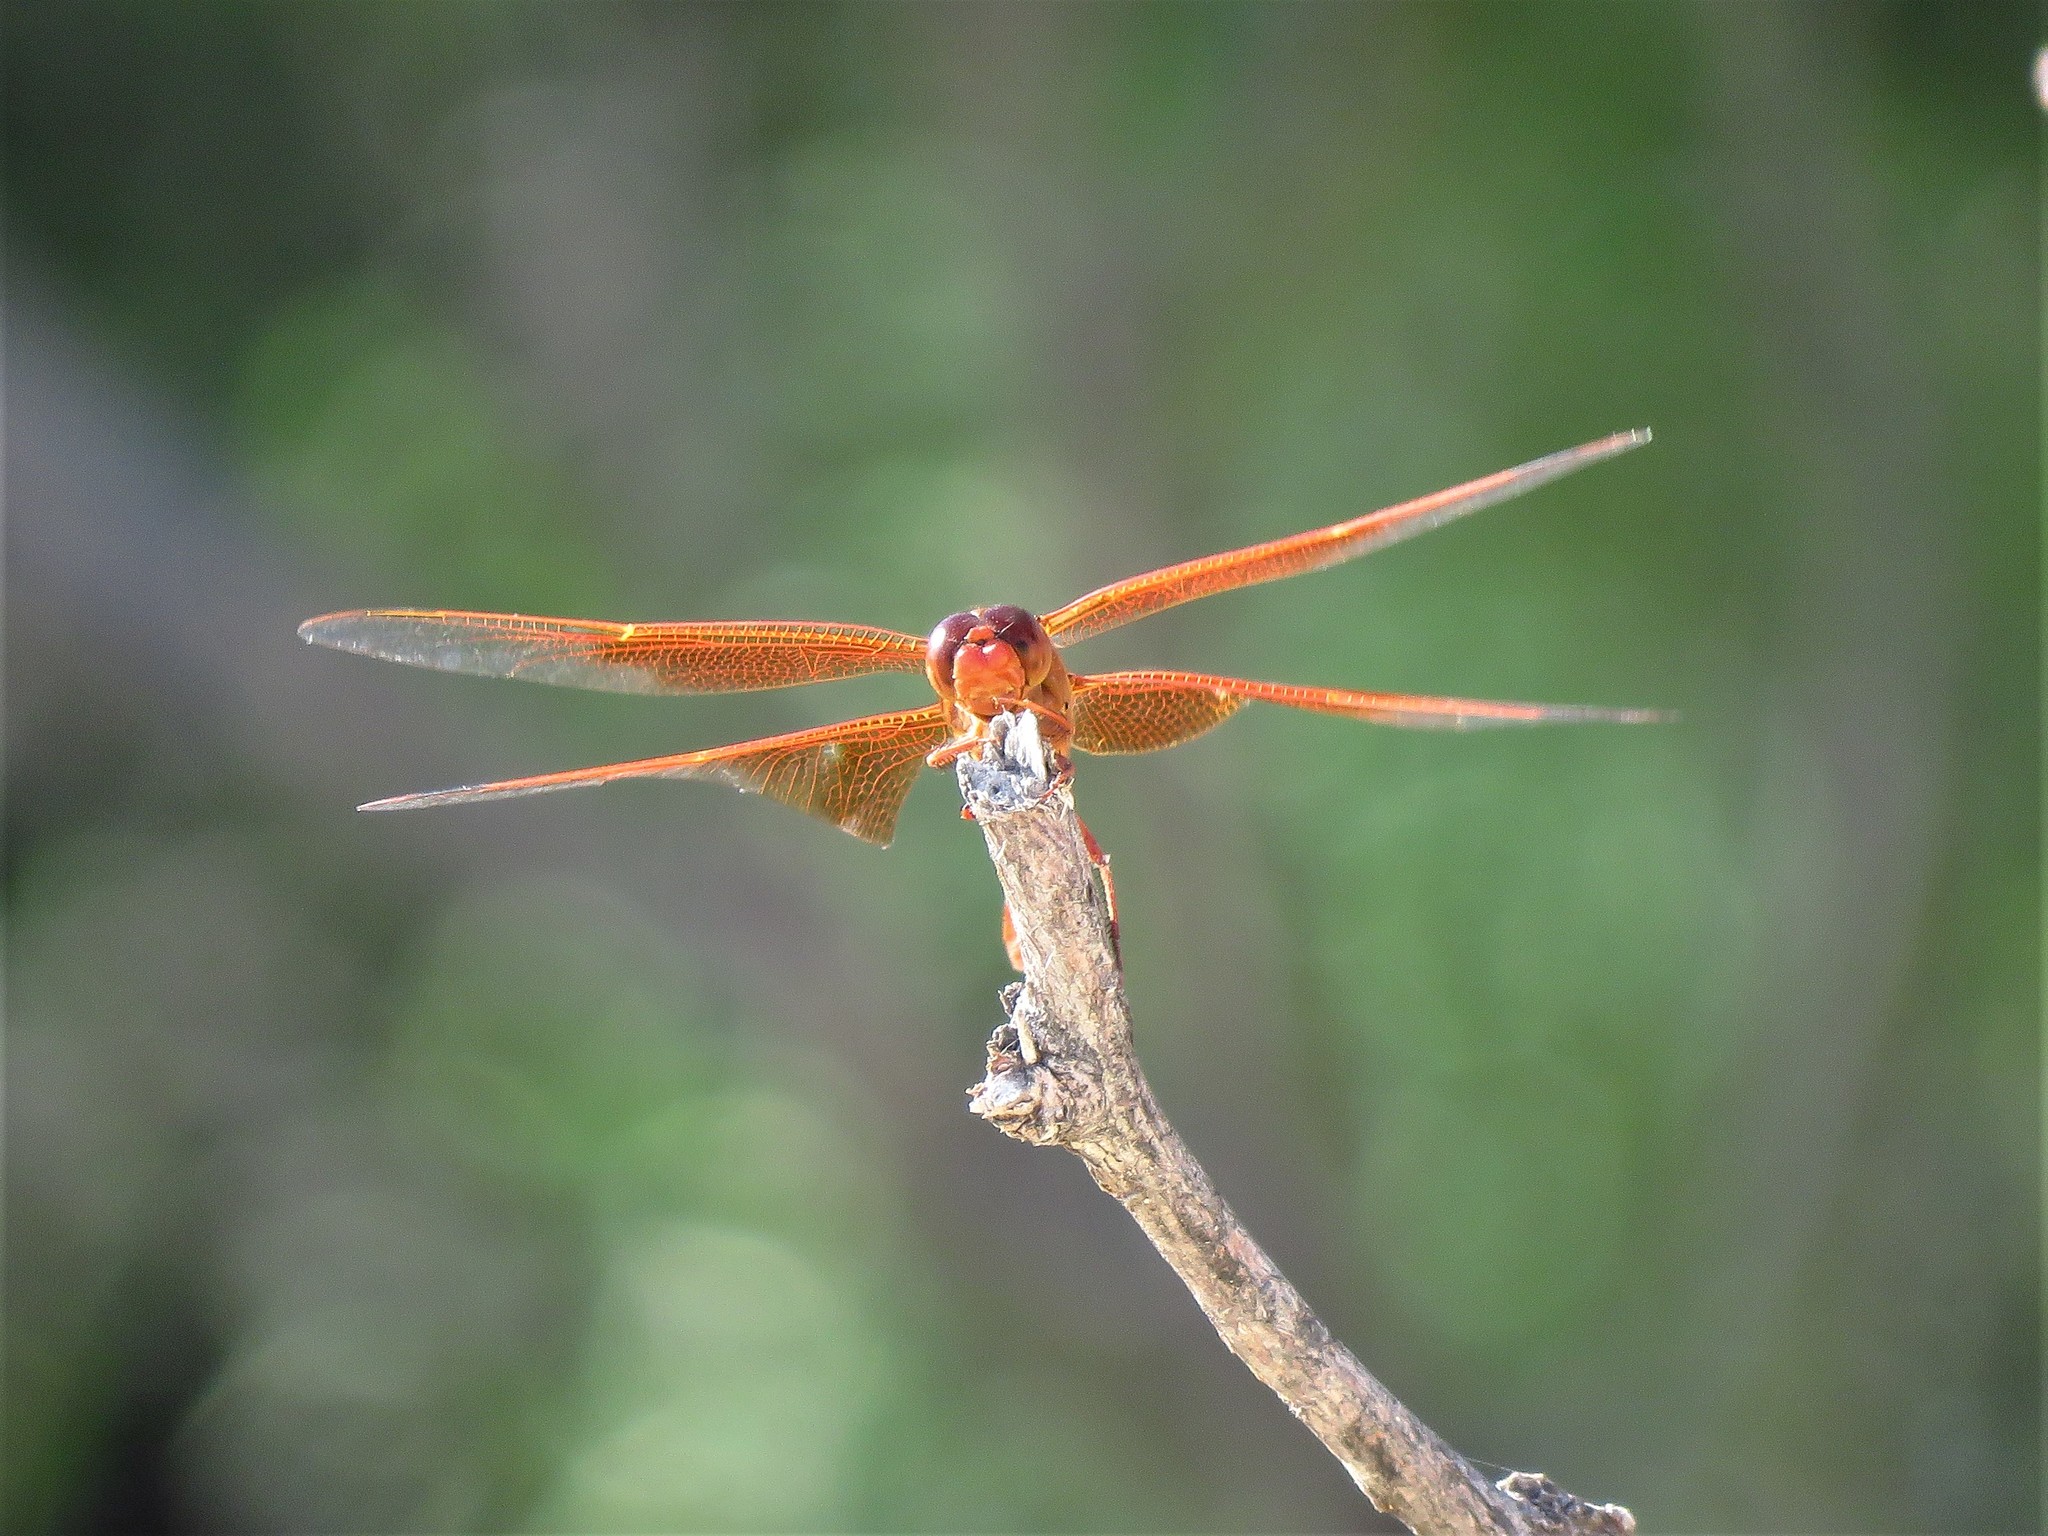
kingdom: Animalia
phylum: Arthropoda
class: Insecta
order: Odonata
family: Libellulidae
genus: Libellula
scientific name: Libellula saturata
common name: Flame skimmer
